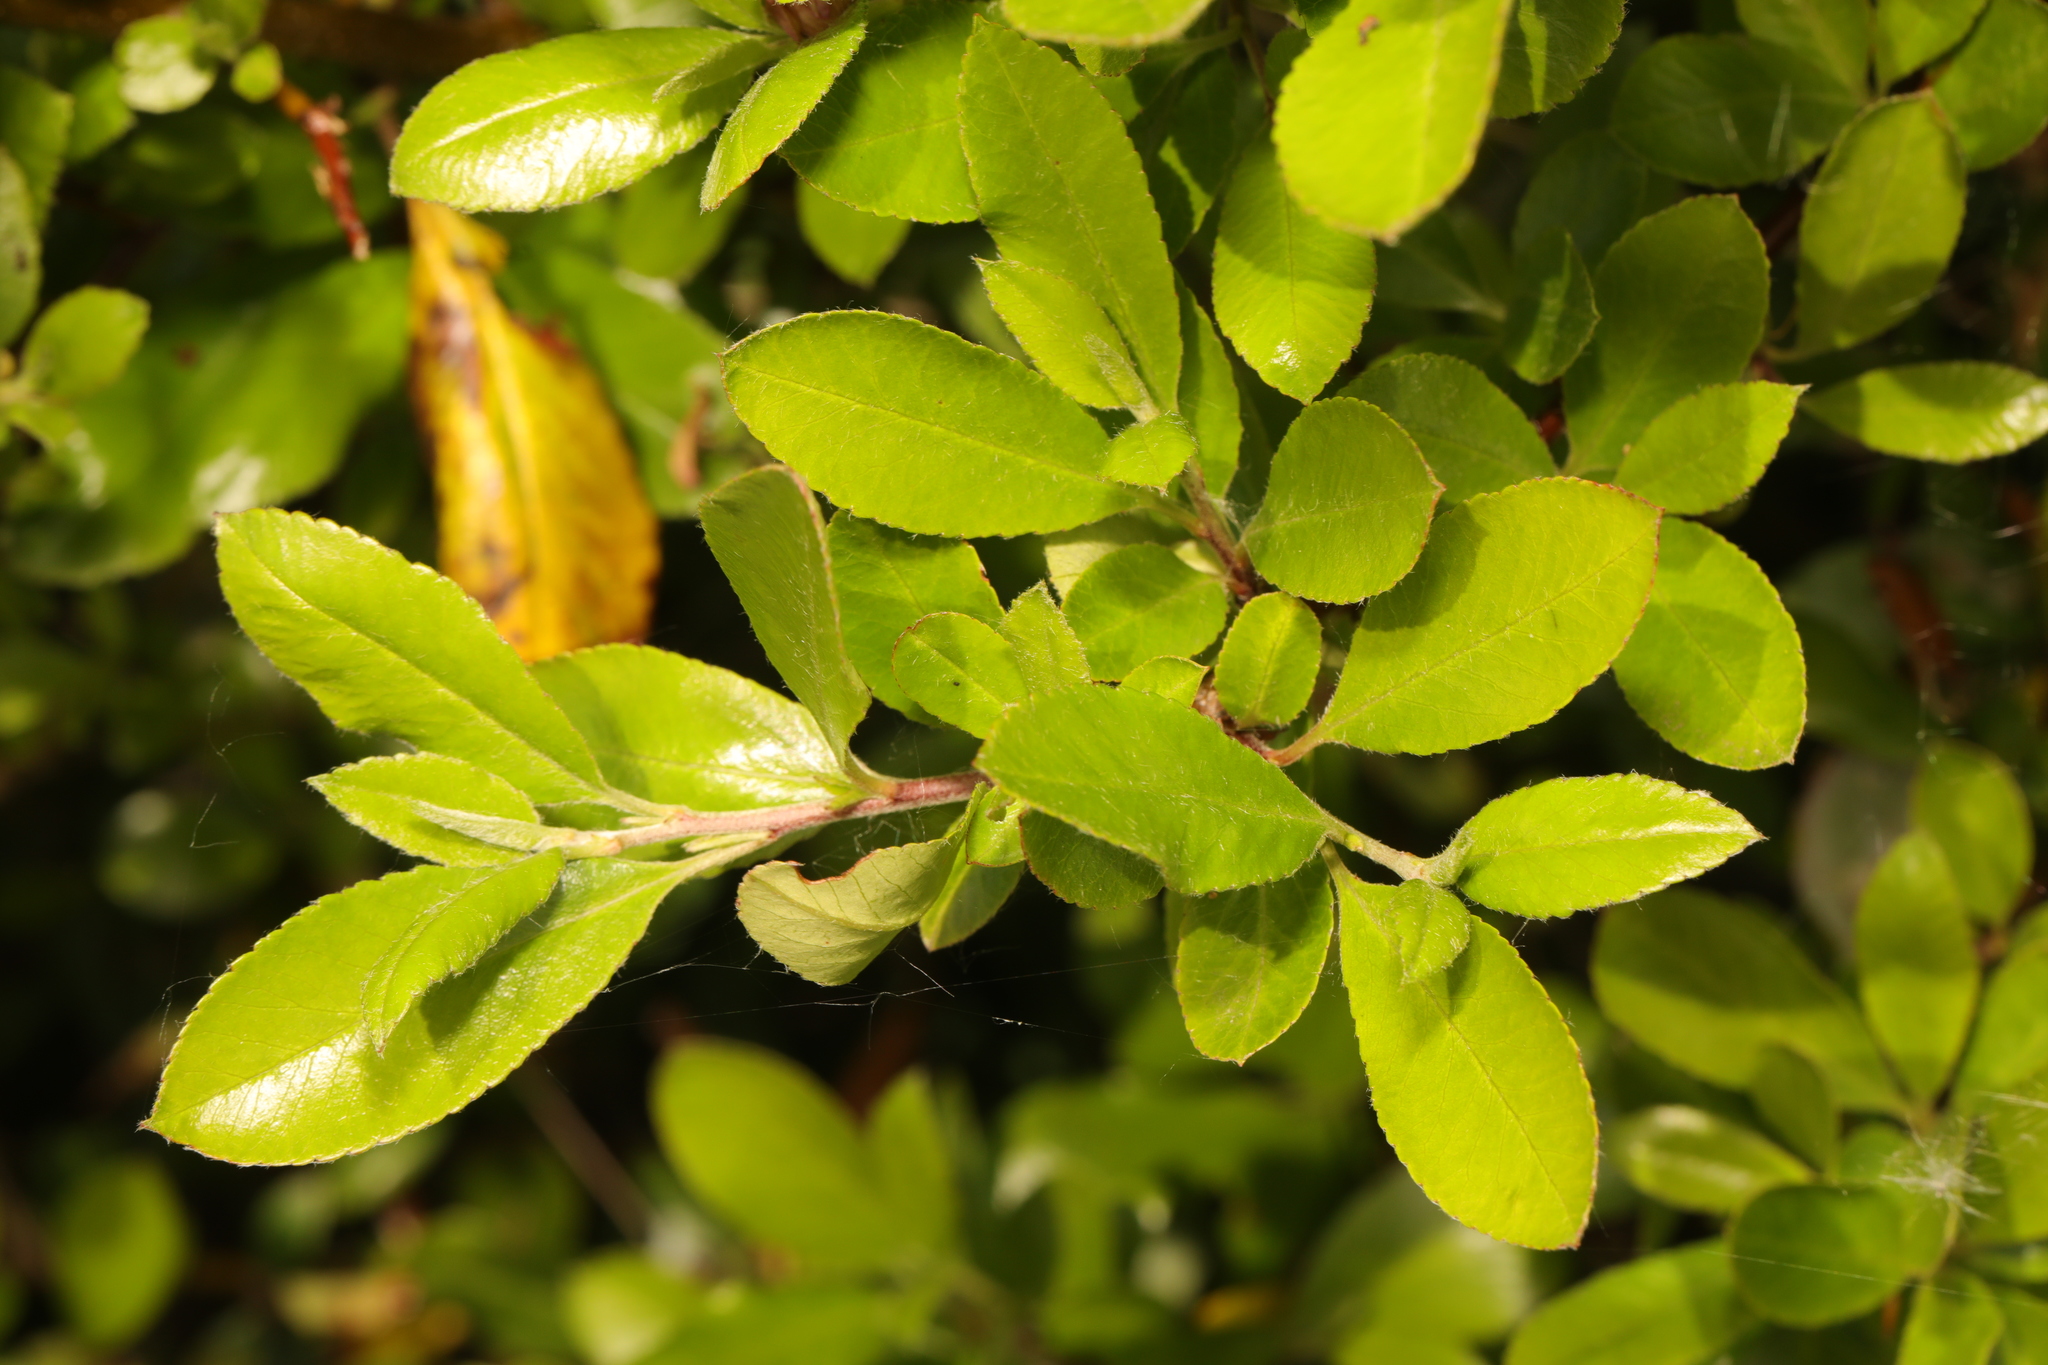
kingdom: Plantae
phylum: Tracheophyta
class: Magnoliopsida
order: Rosales
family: Rosaceae
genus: Prunus
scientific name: Prunus spinosa
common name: Blackthorn
